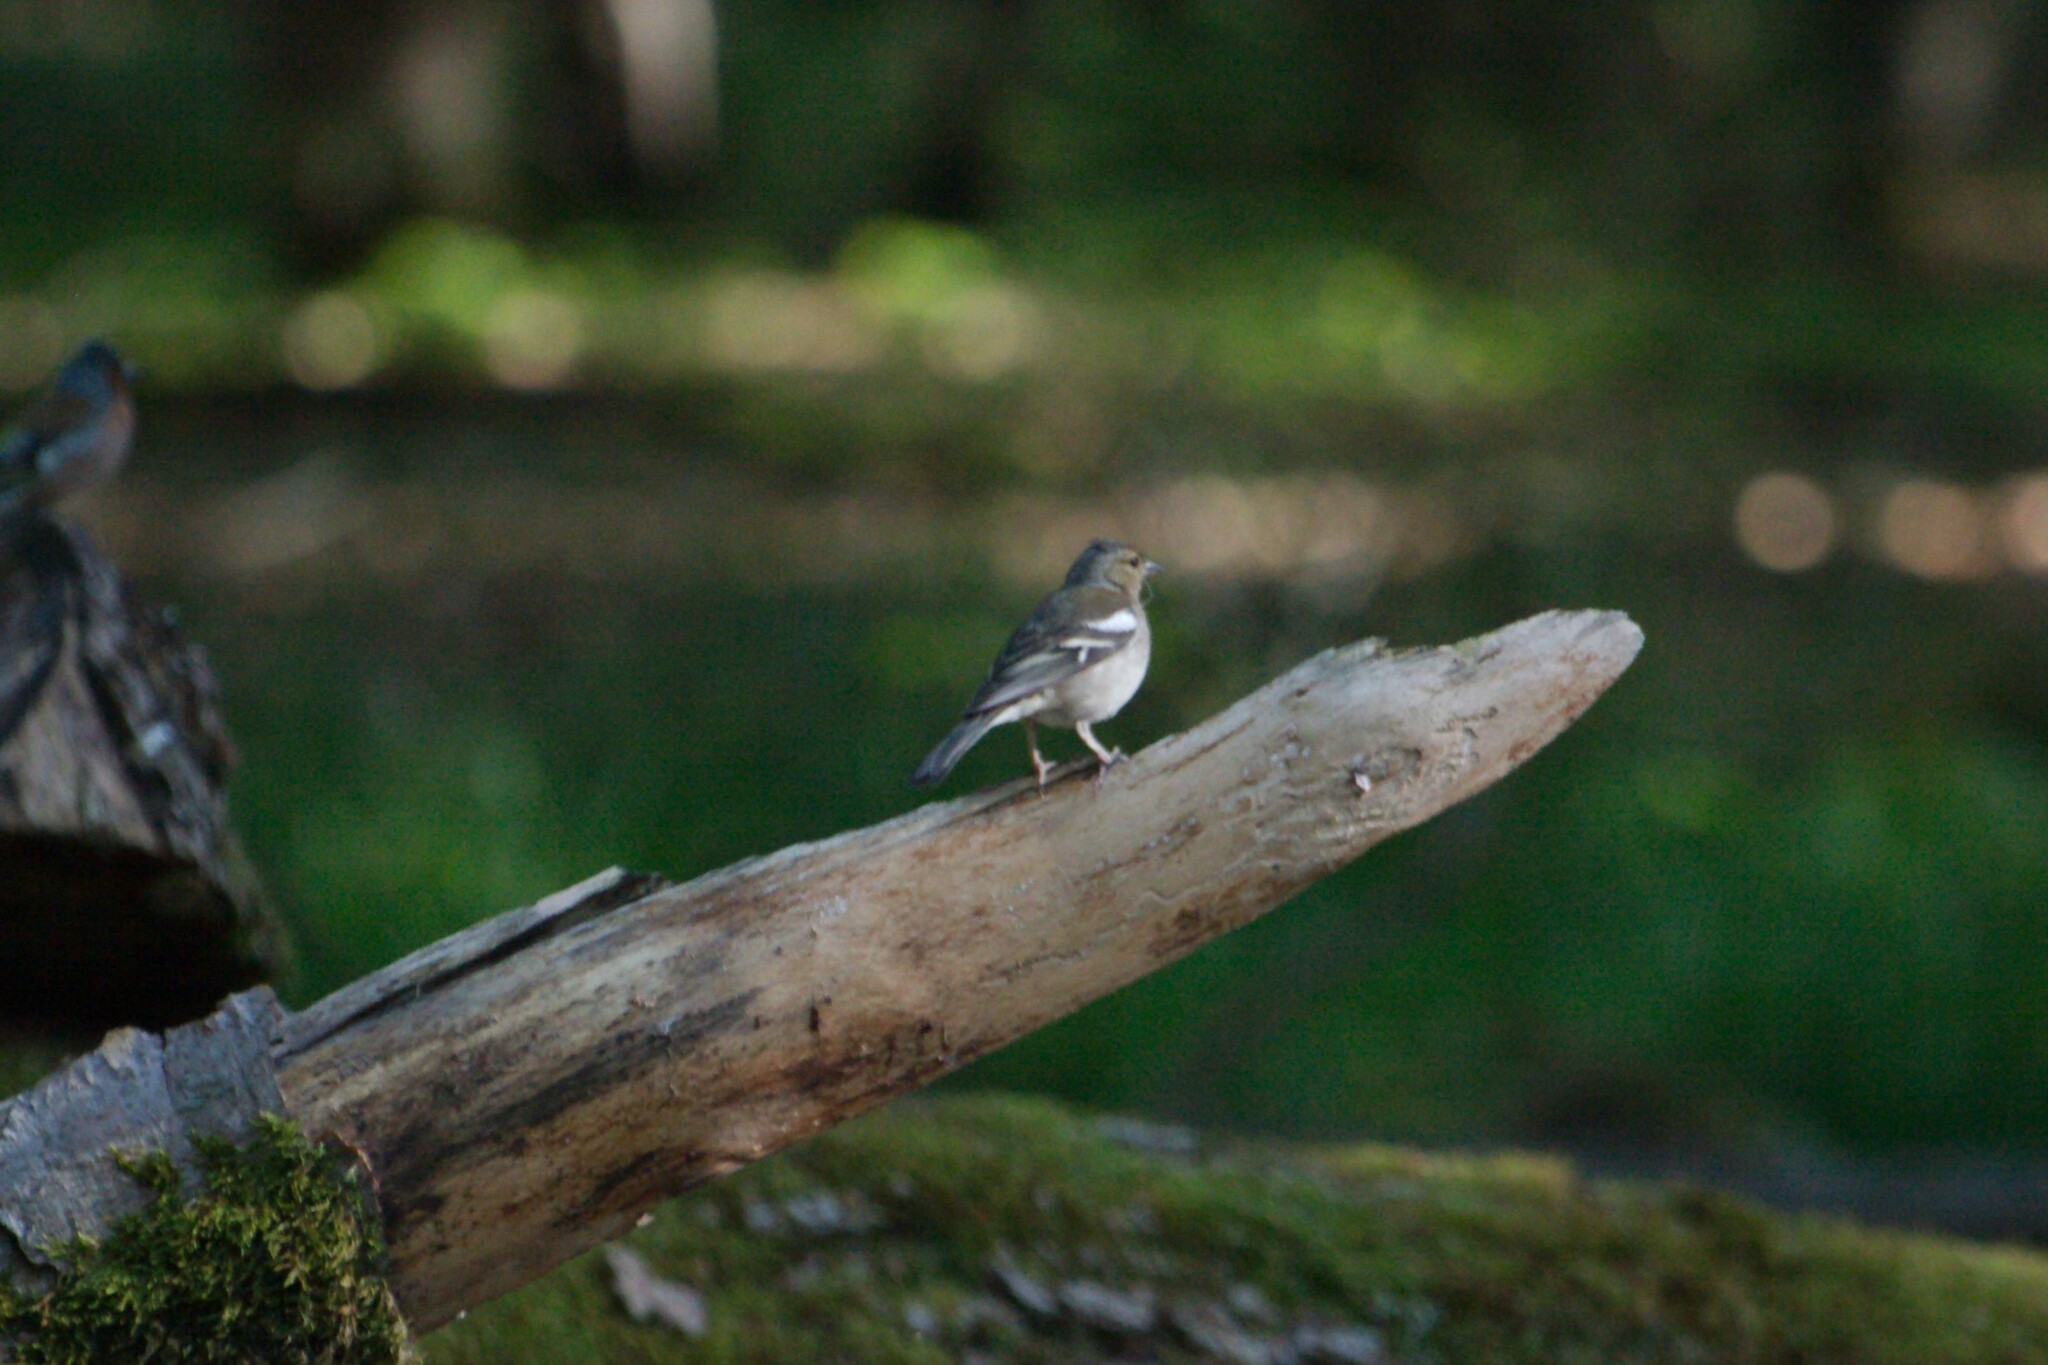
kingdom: Animalia
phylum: Chordata
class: Aves
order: Passeriformes
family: Fringillidae
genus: Fringilla
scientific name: Fringilla coelebs
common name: Common chaffinch
